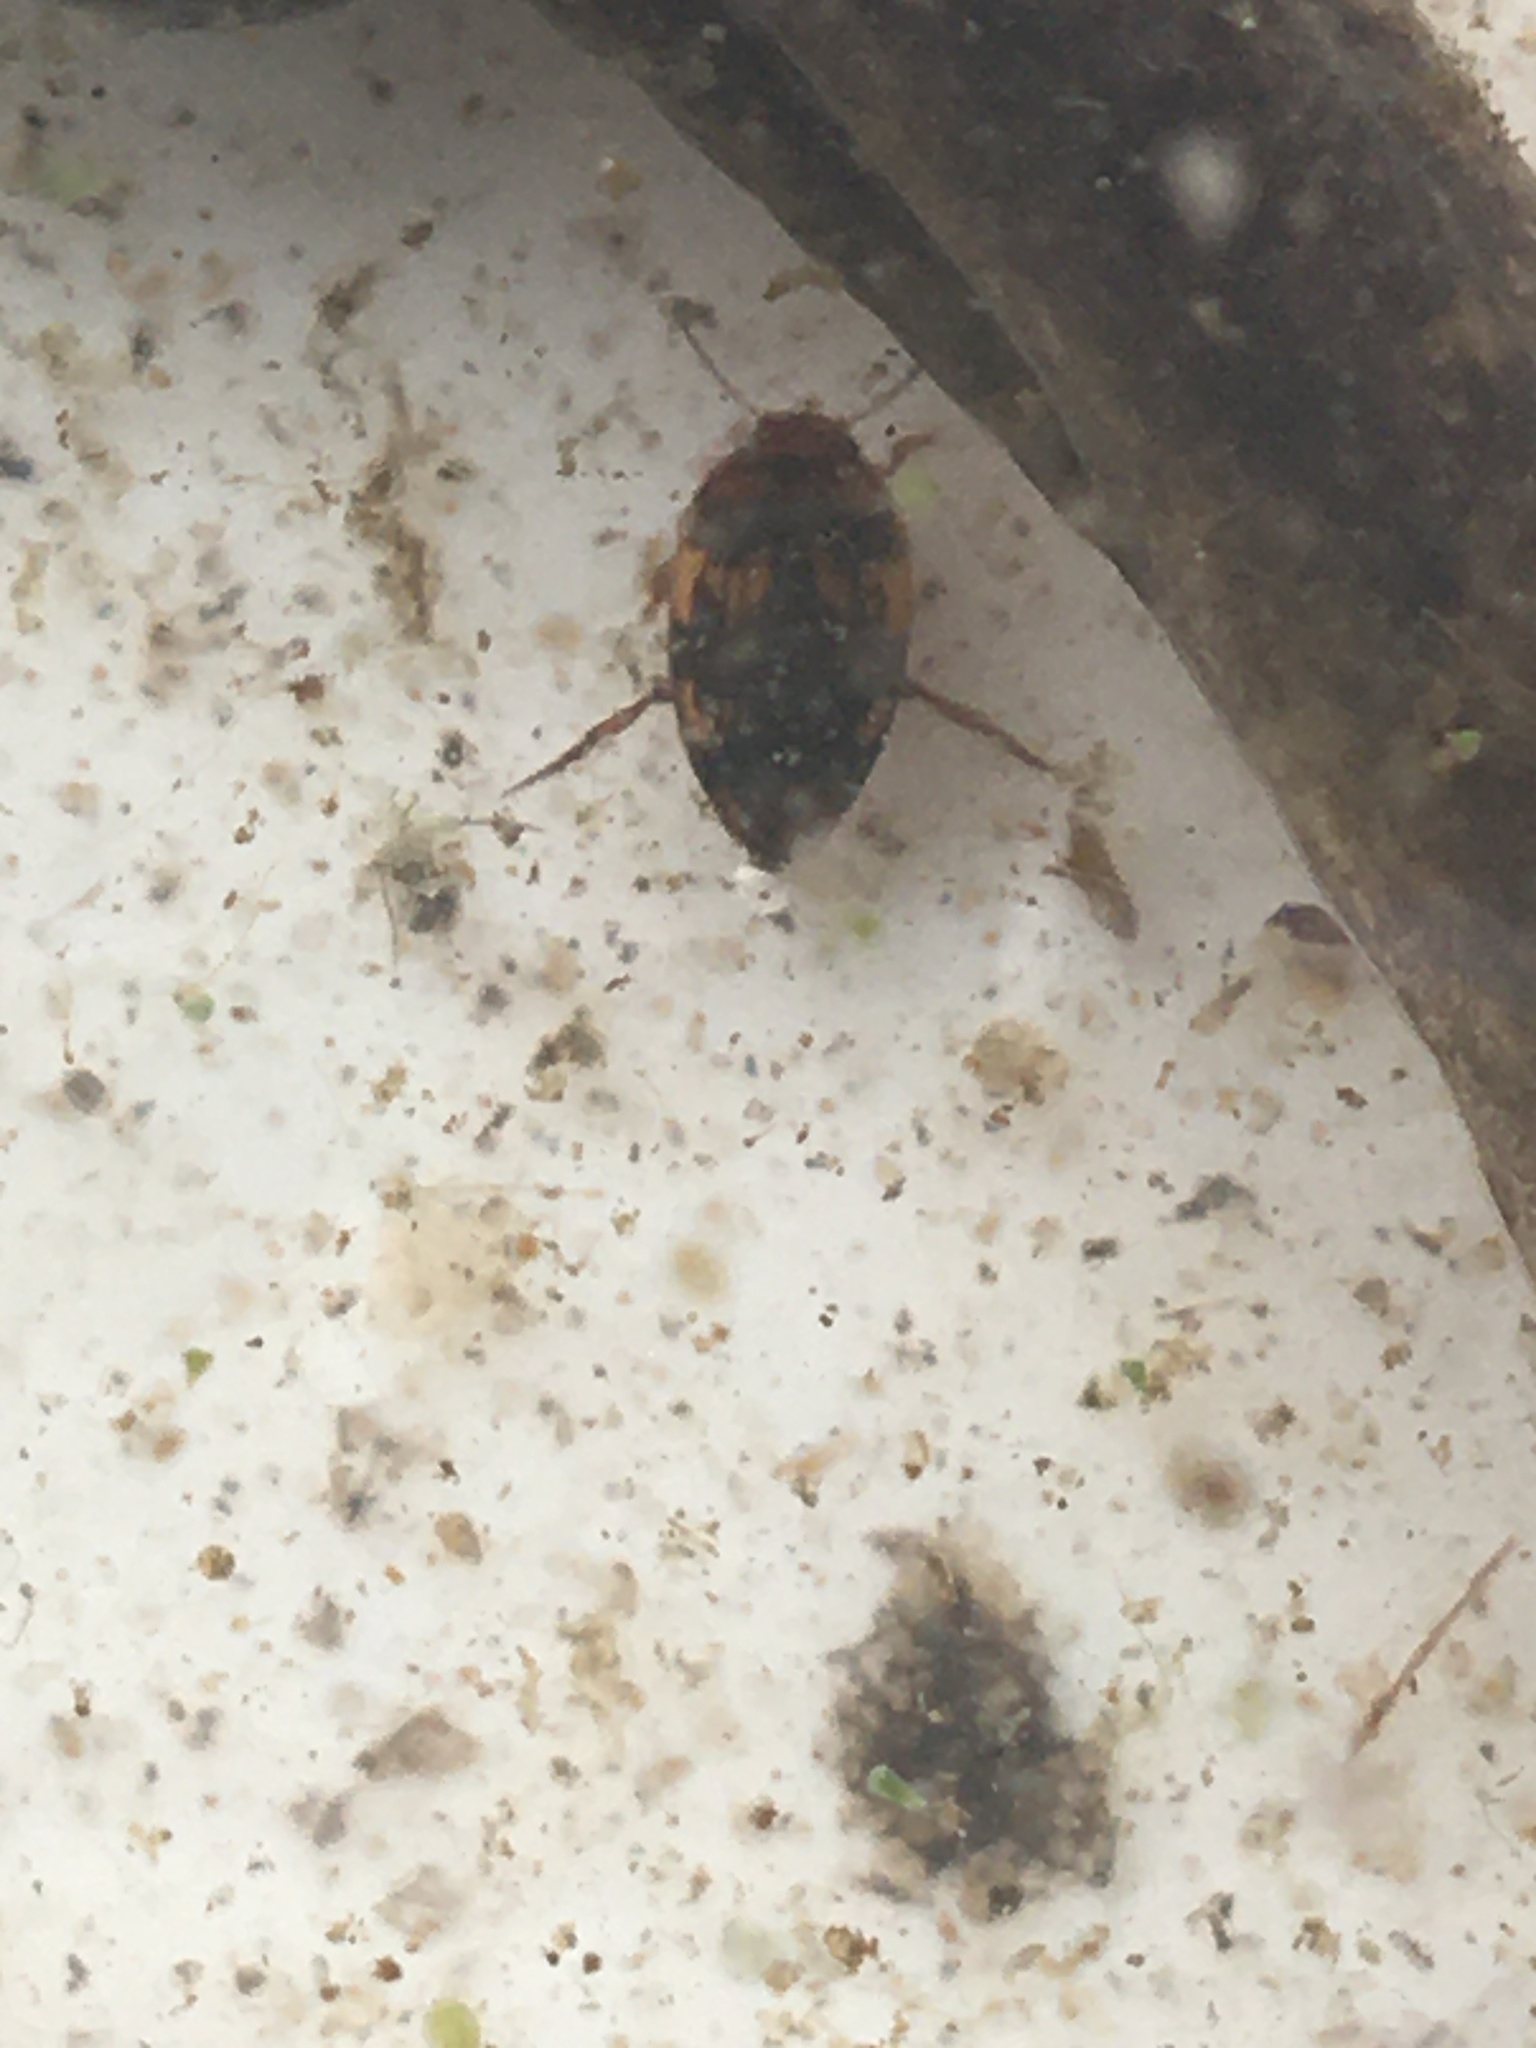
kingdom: Animalia
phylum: Arthropoda
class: Insecta
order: Coleoptera
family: Dytiscidae
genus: Neoporus
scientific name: Neoporus
